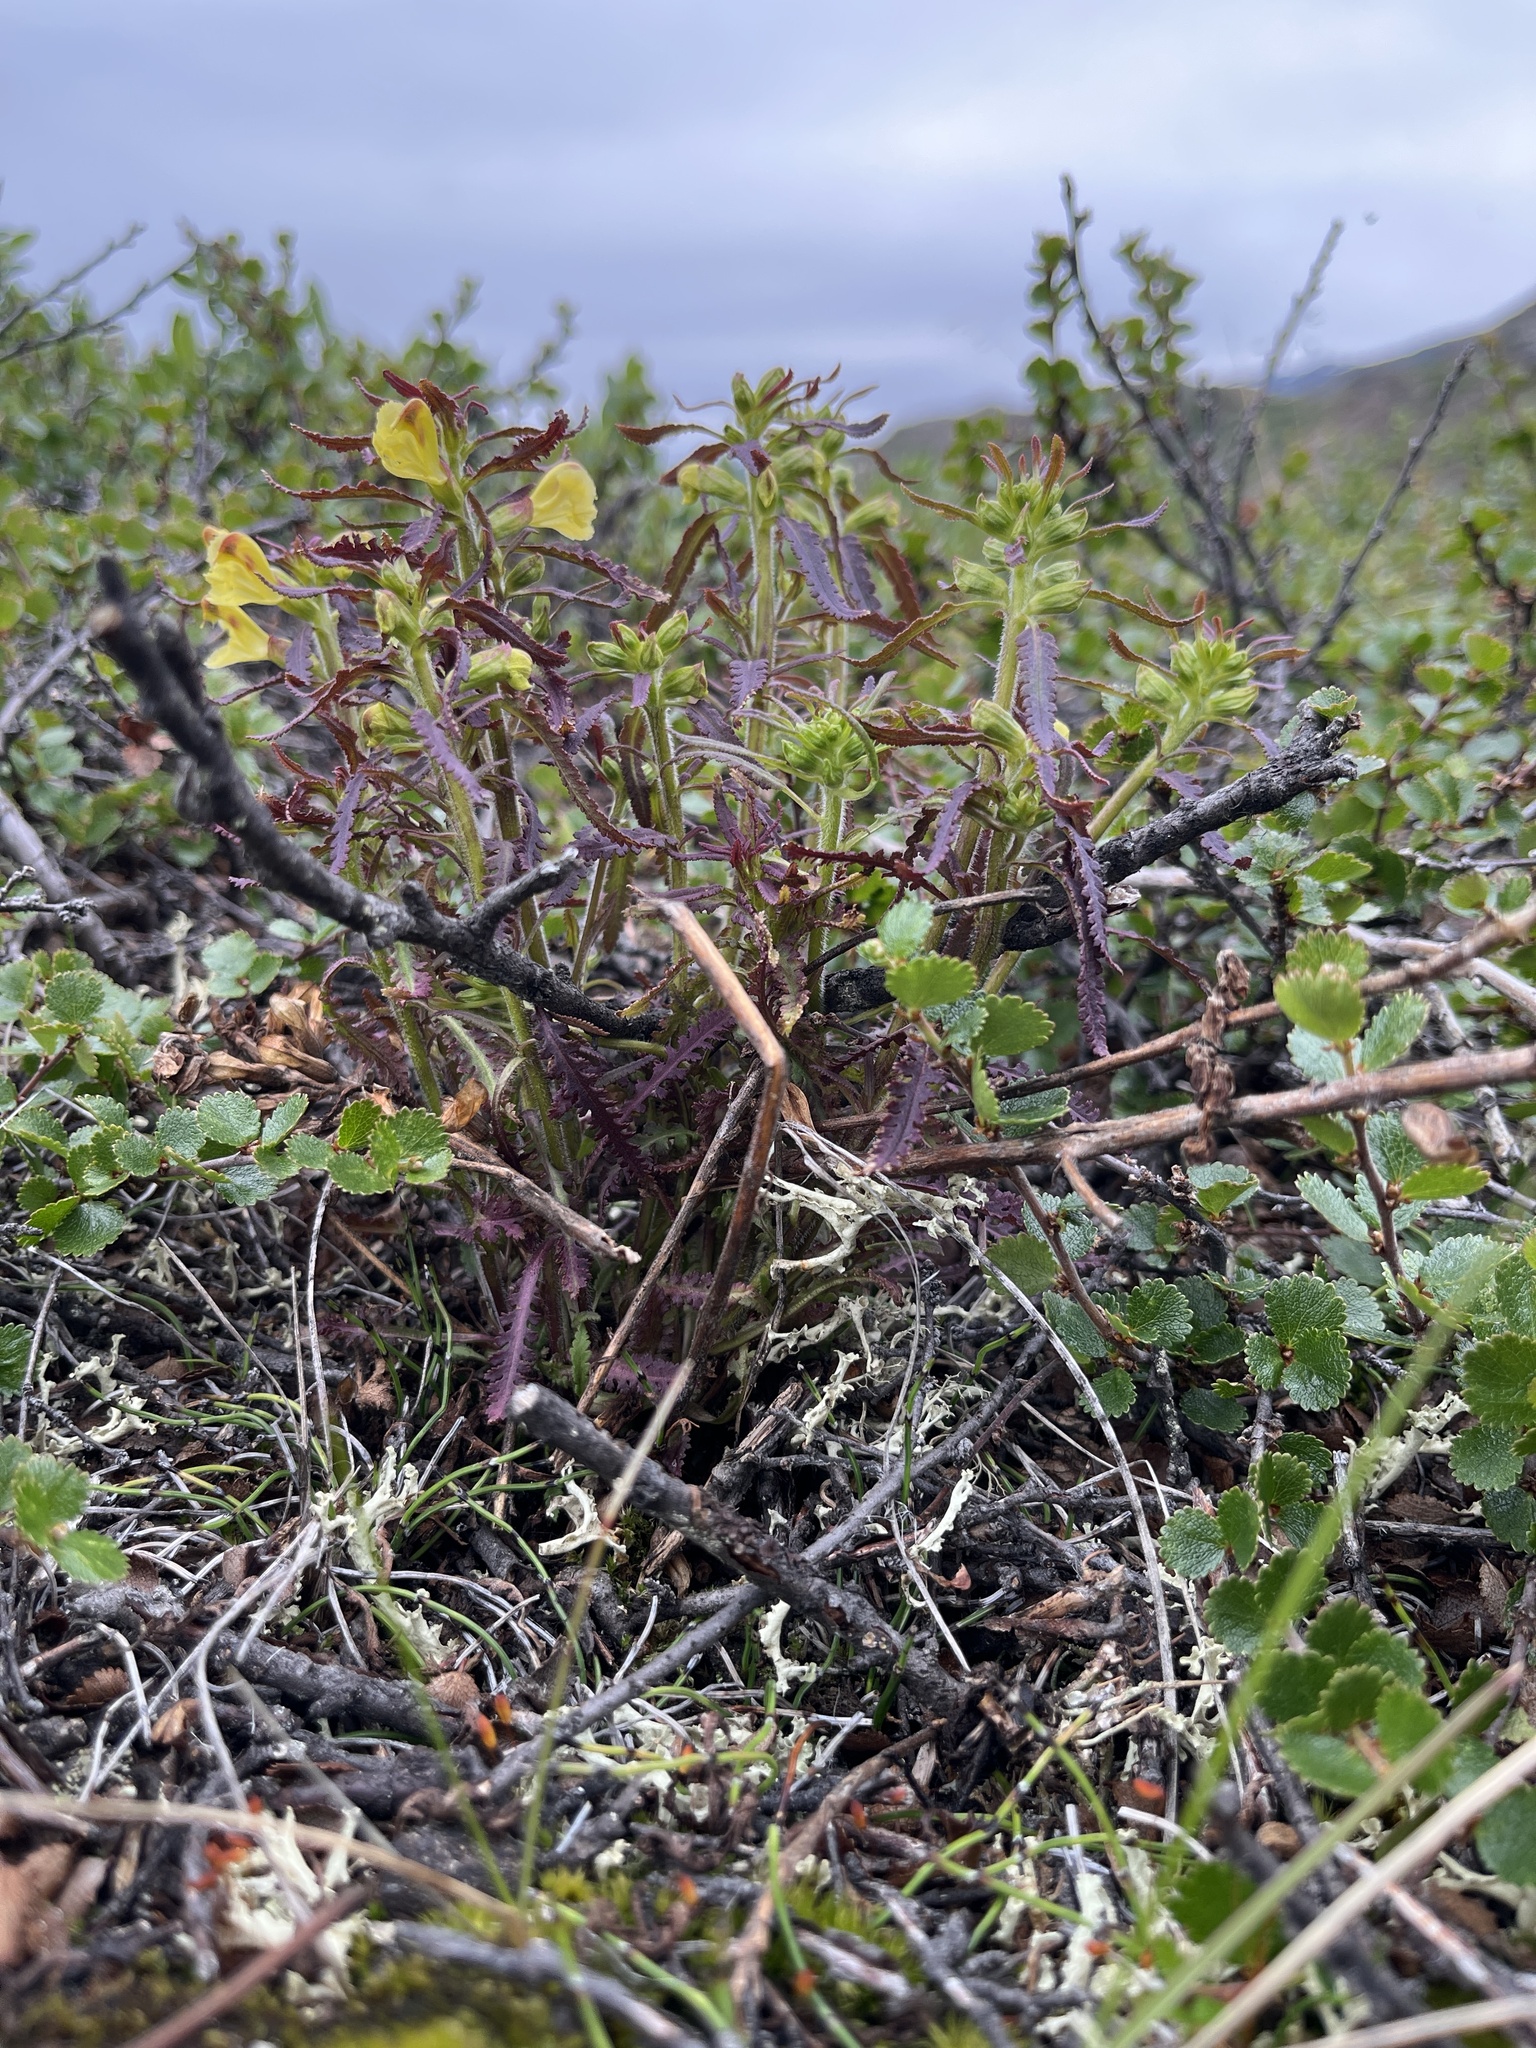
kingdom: Plantae
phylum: Tracheophyta
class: Magnoliopsida
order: Lamiales
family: Orobanchaceae
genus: Pedicularis
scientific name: Pedicularis labradorica
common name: Labrador lousewort
